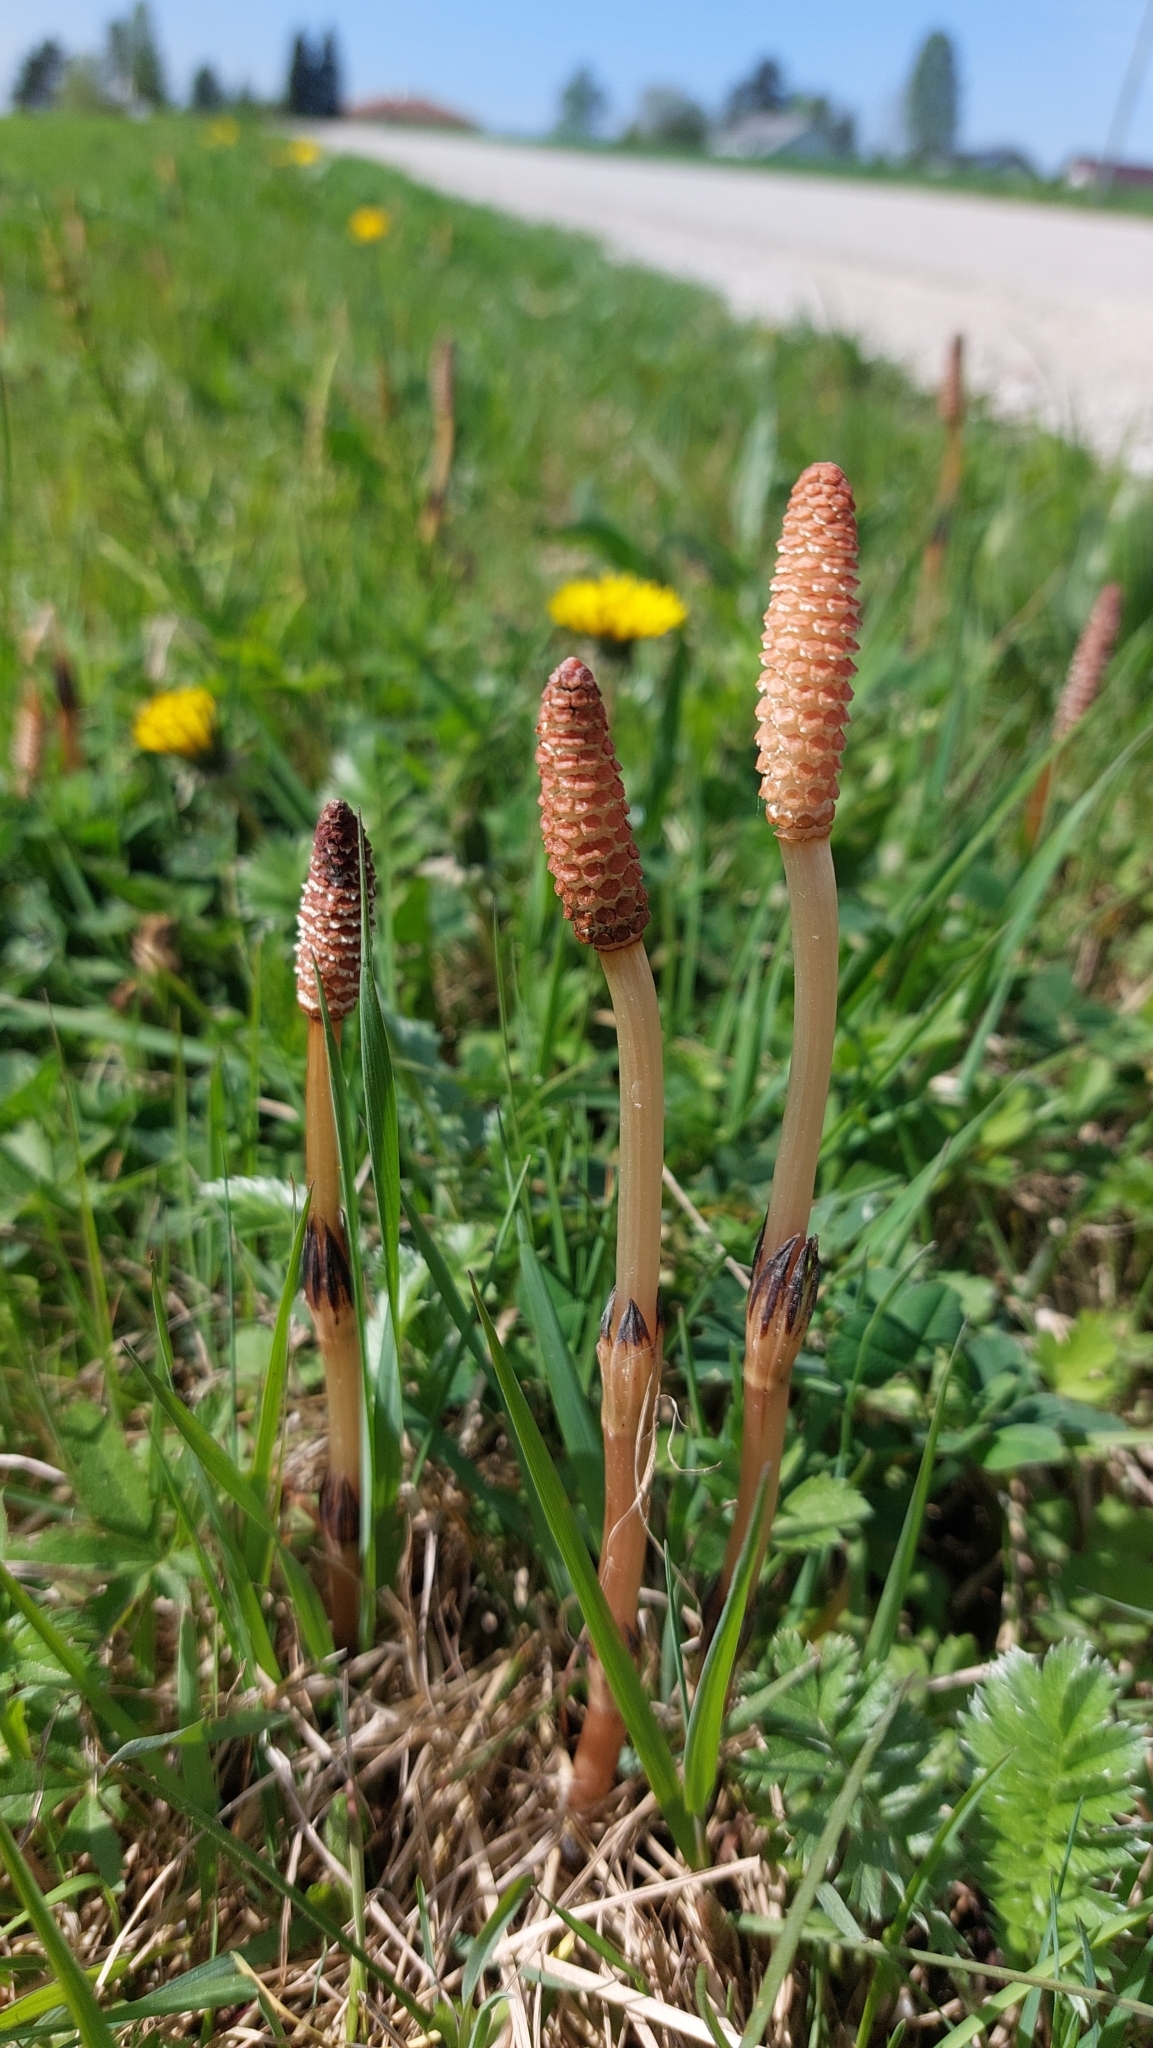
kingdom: Plantae
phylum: Tracheophyta
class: Polypodiopsida
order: Equisetales
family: Equisetaceae
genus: Equisetum
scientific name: Equisetum arvense
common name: Field horsetail
